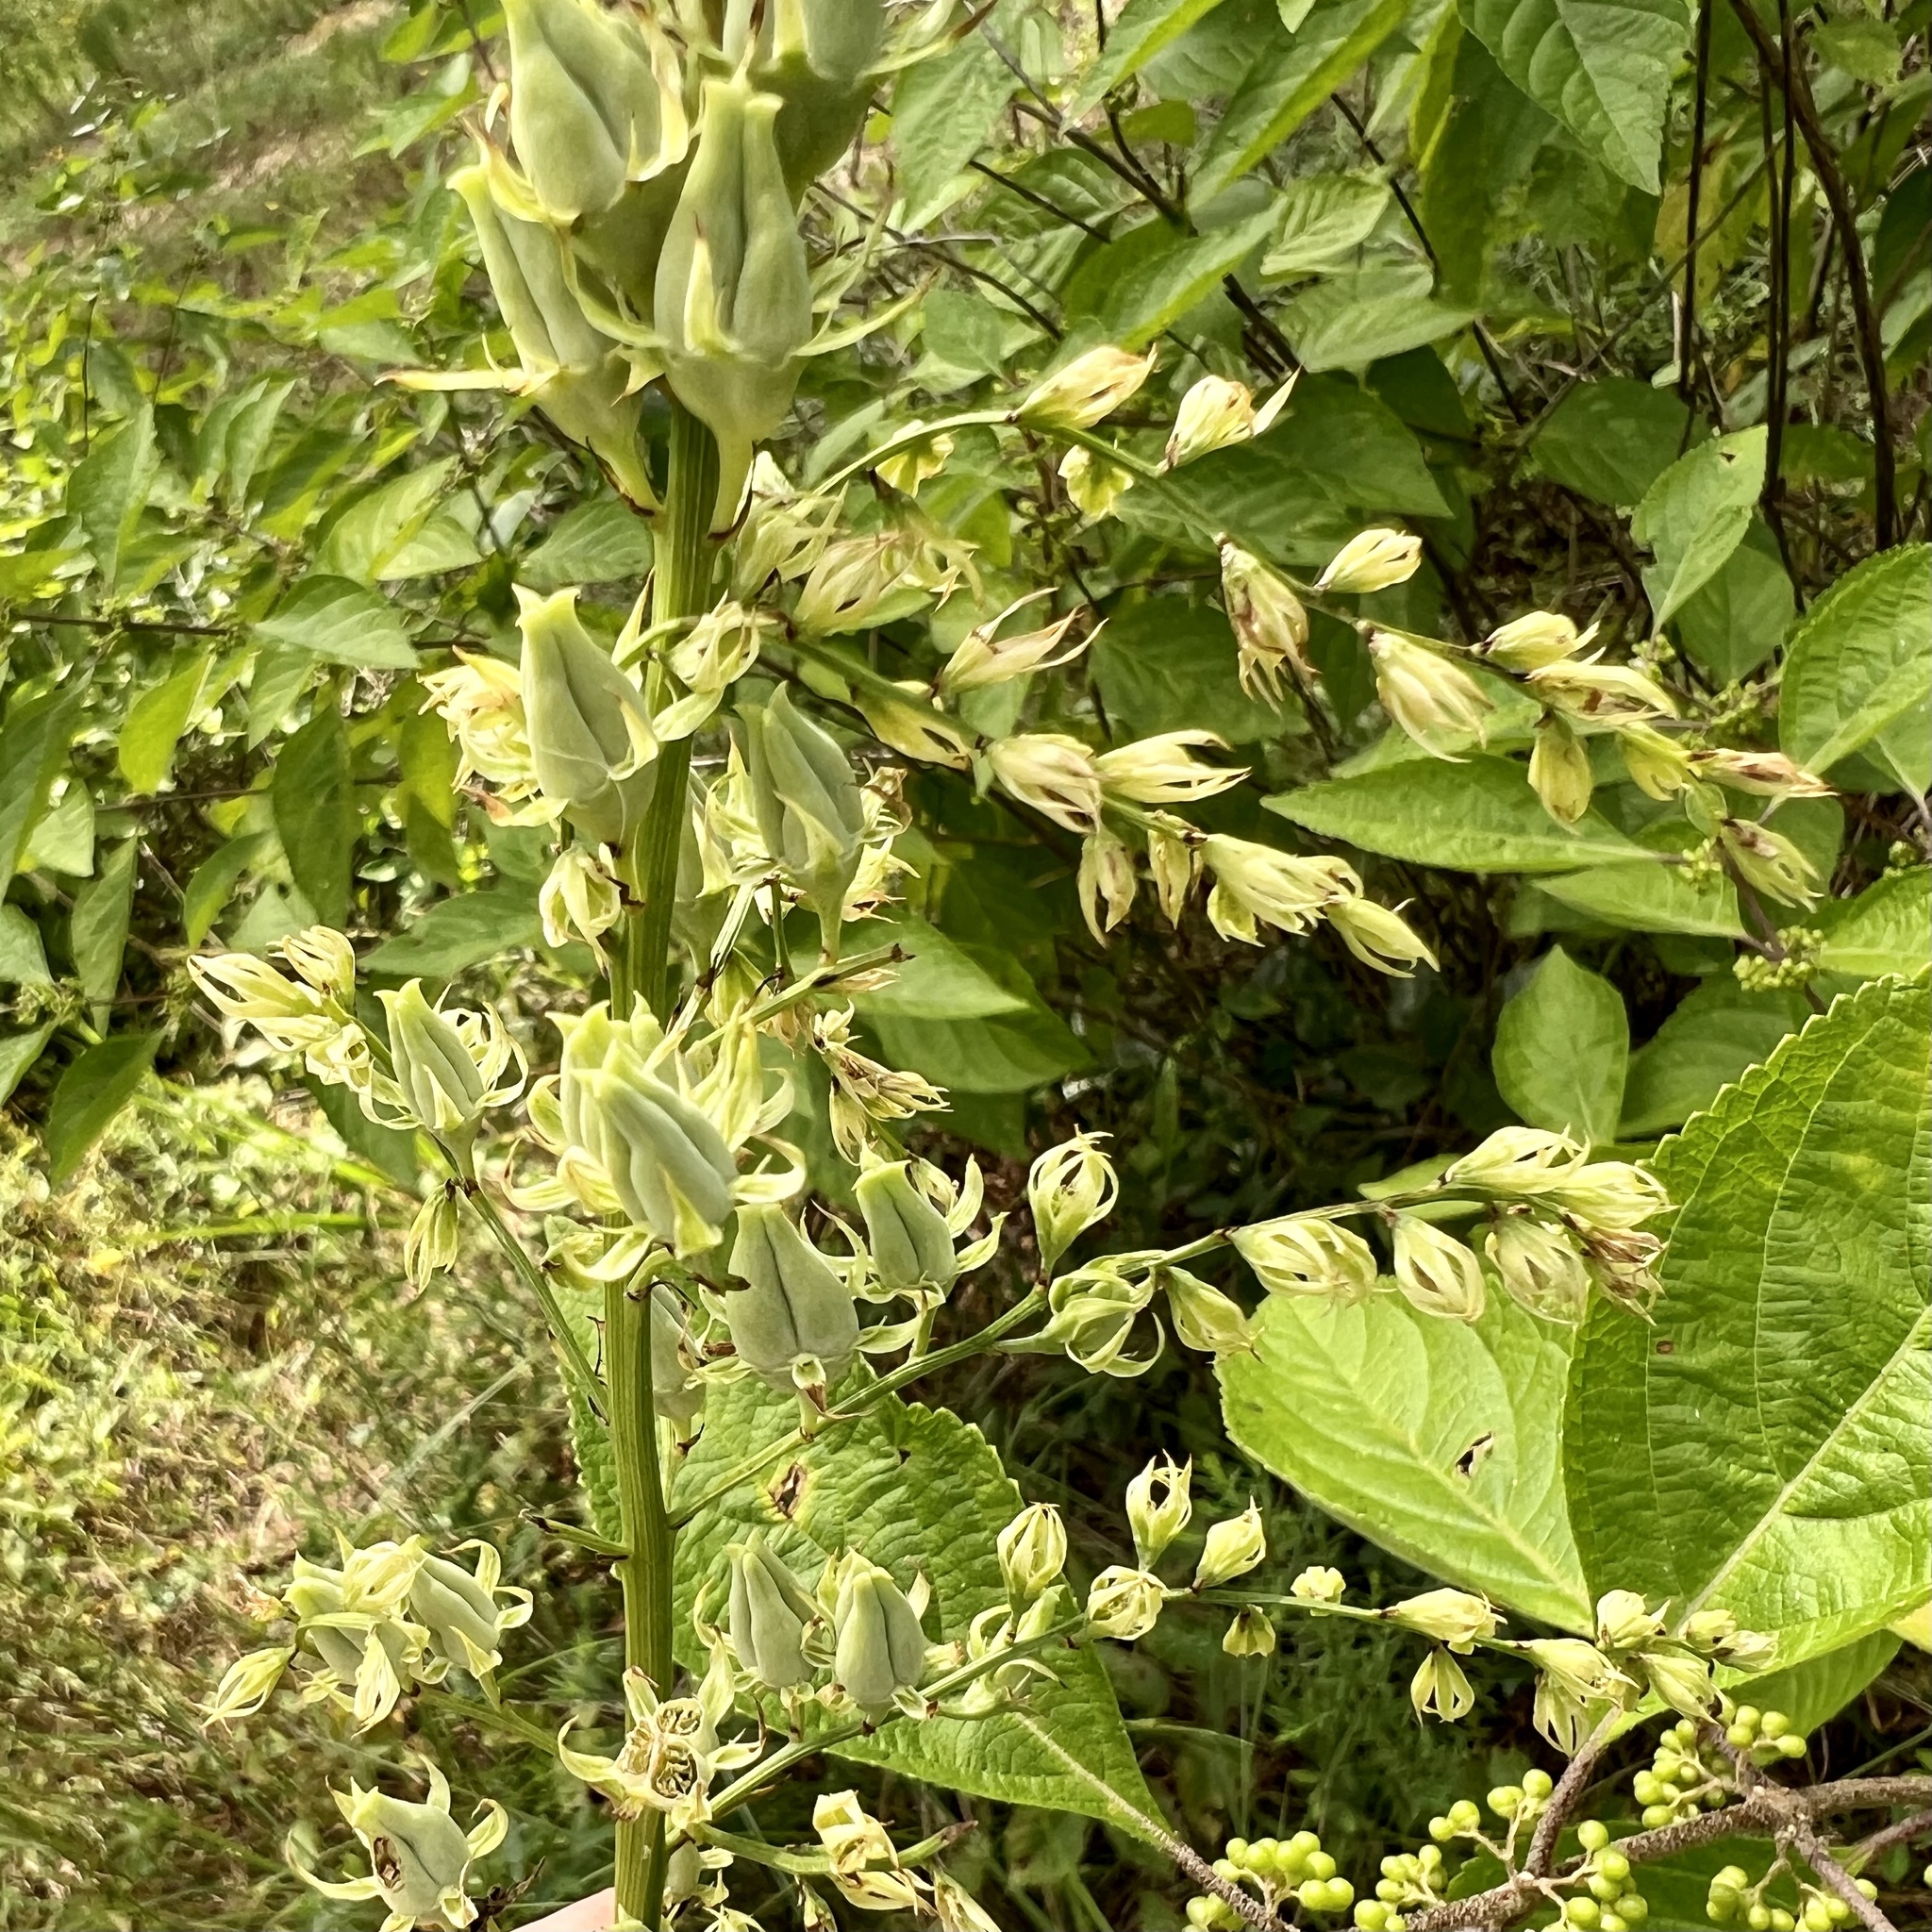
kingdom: Plantae
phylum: Tracheophyta
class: Liliopsida
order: Liliales
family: Melanthiaceae
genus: Stenanthium
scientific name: Stenanthium gramineum
